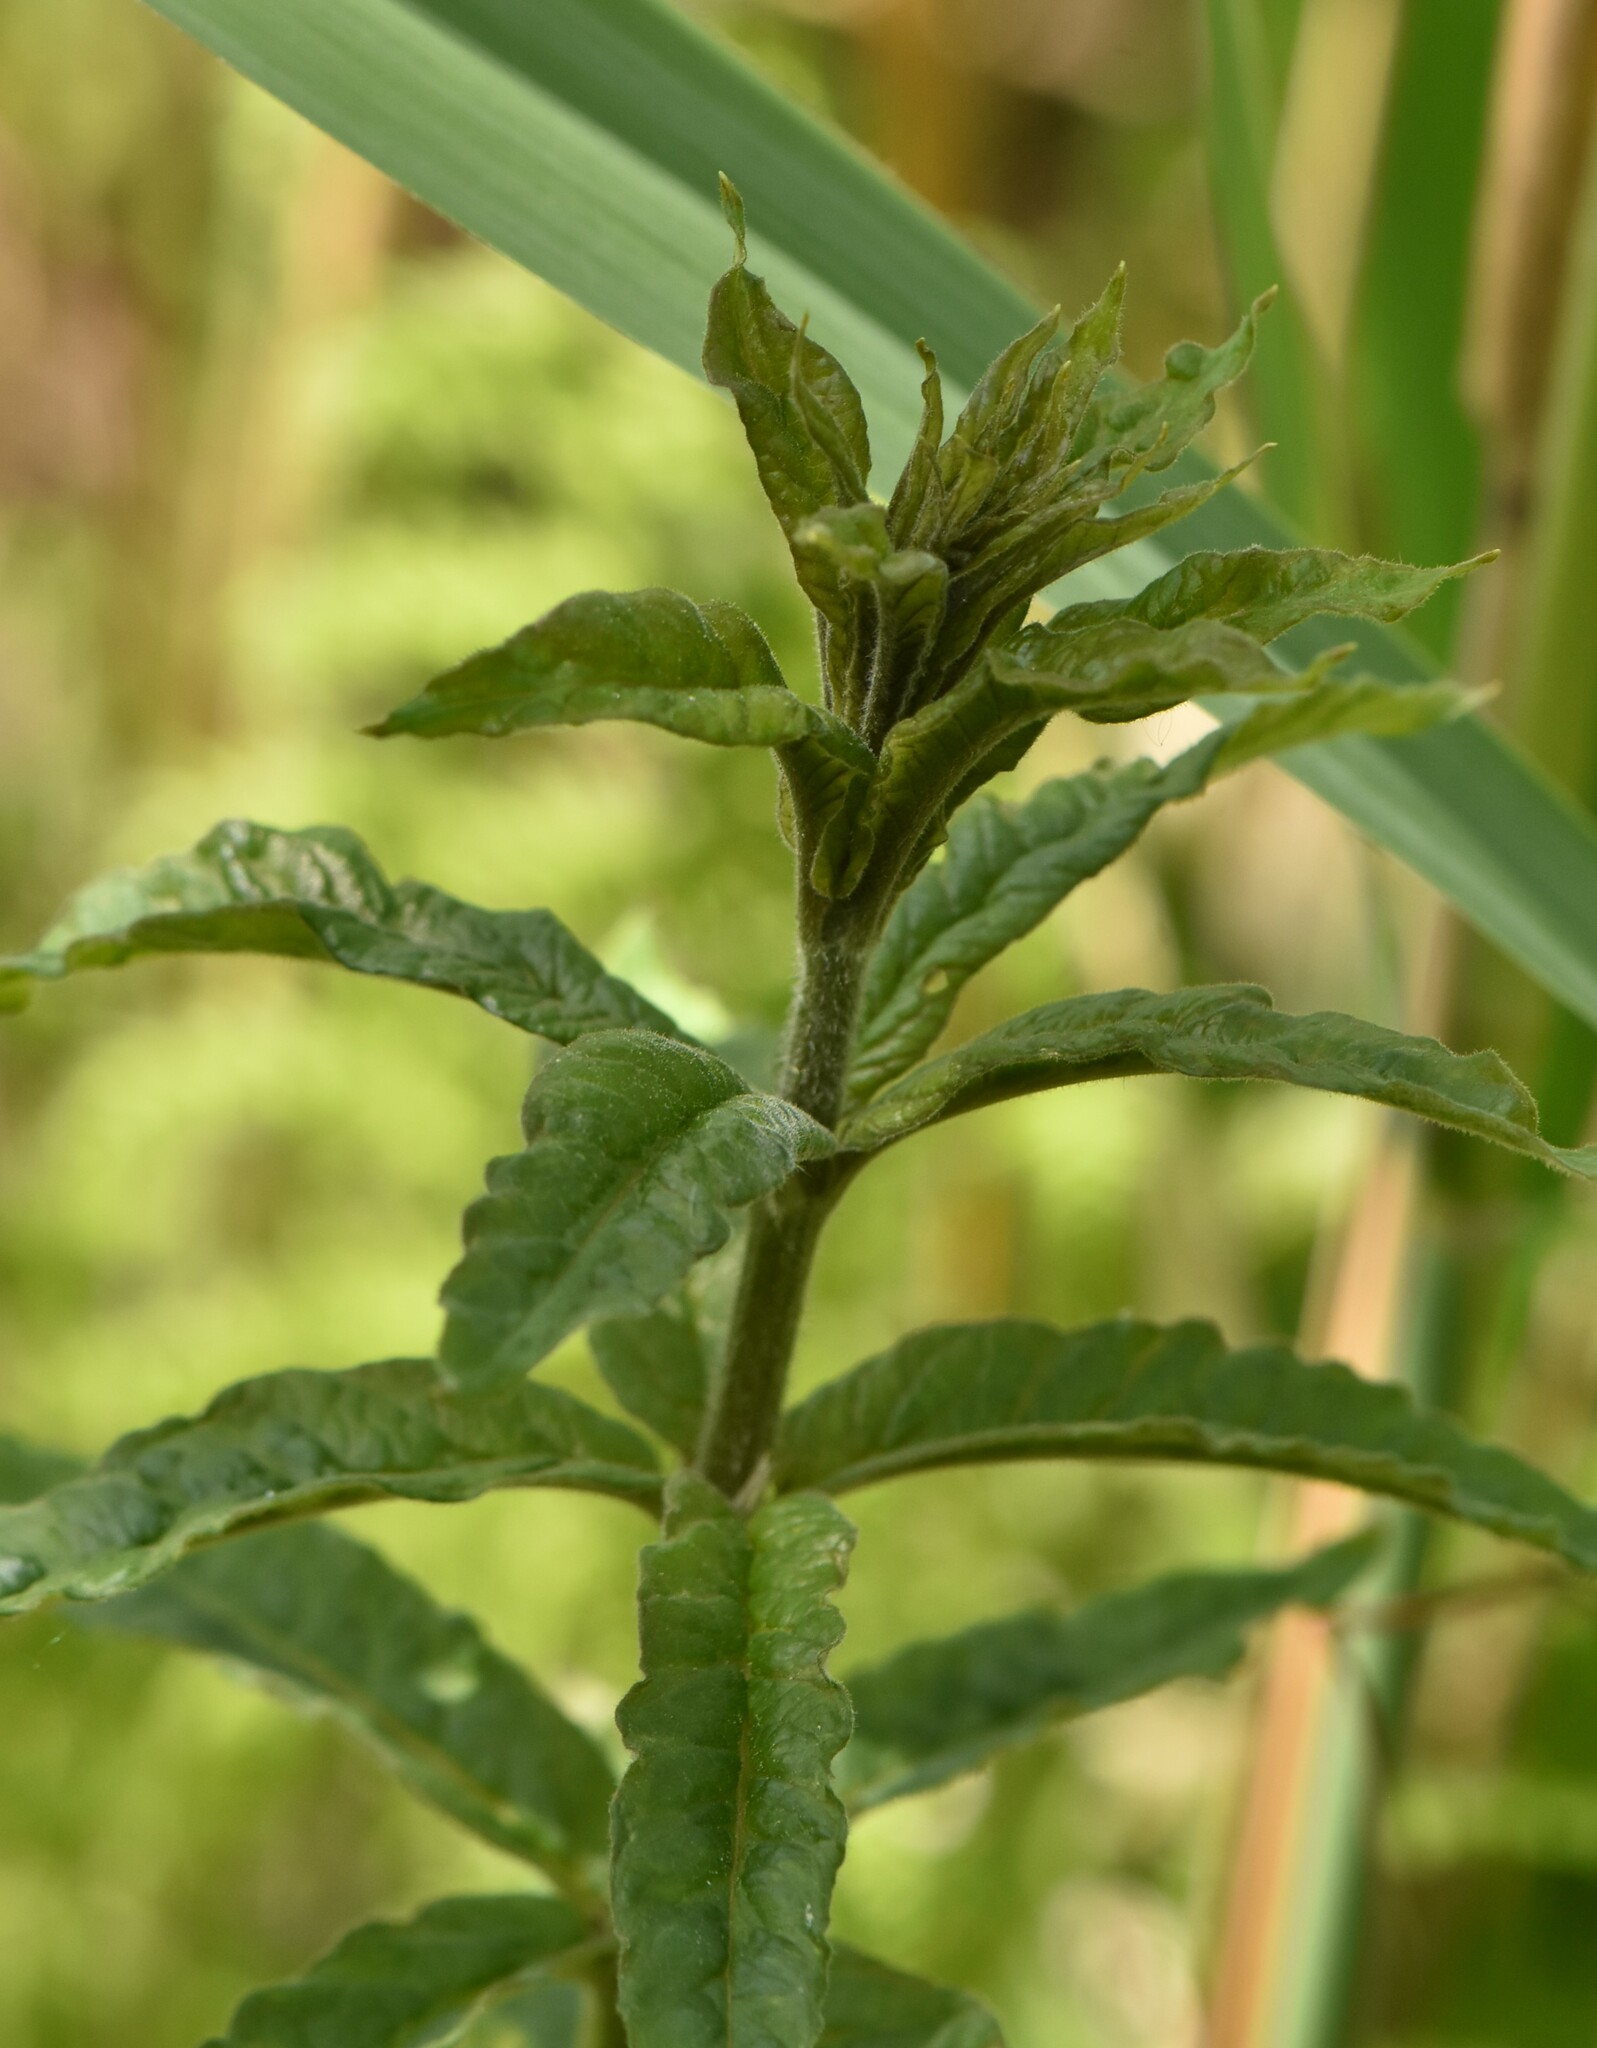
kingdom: Plantae
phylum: Tracheophyta
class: Magnoliopsida
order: Ericales
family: Primulaceae
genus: Lysimachia
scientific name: Lysimachia vulgaris
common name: Yellow loosestrife
